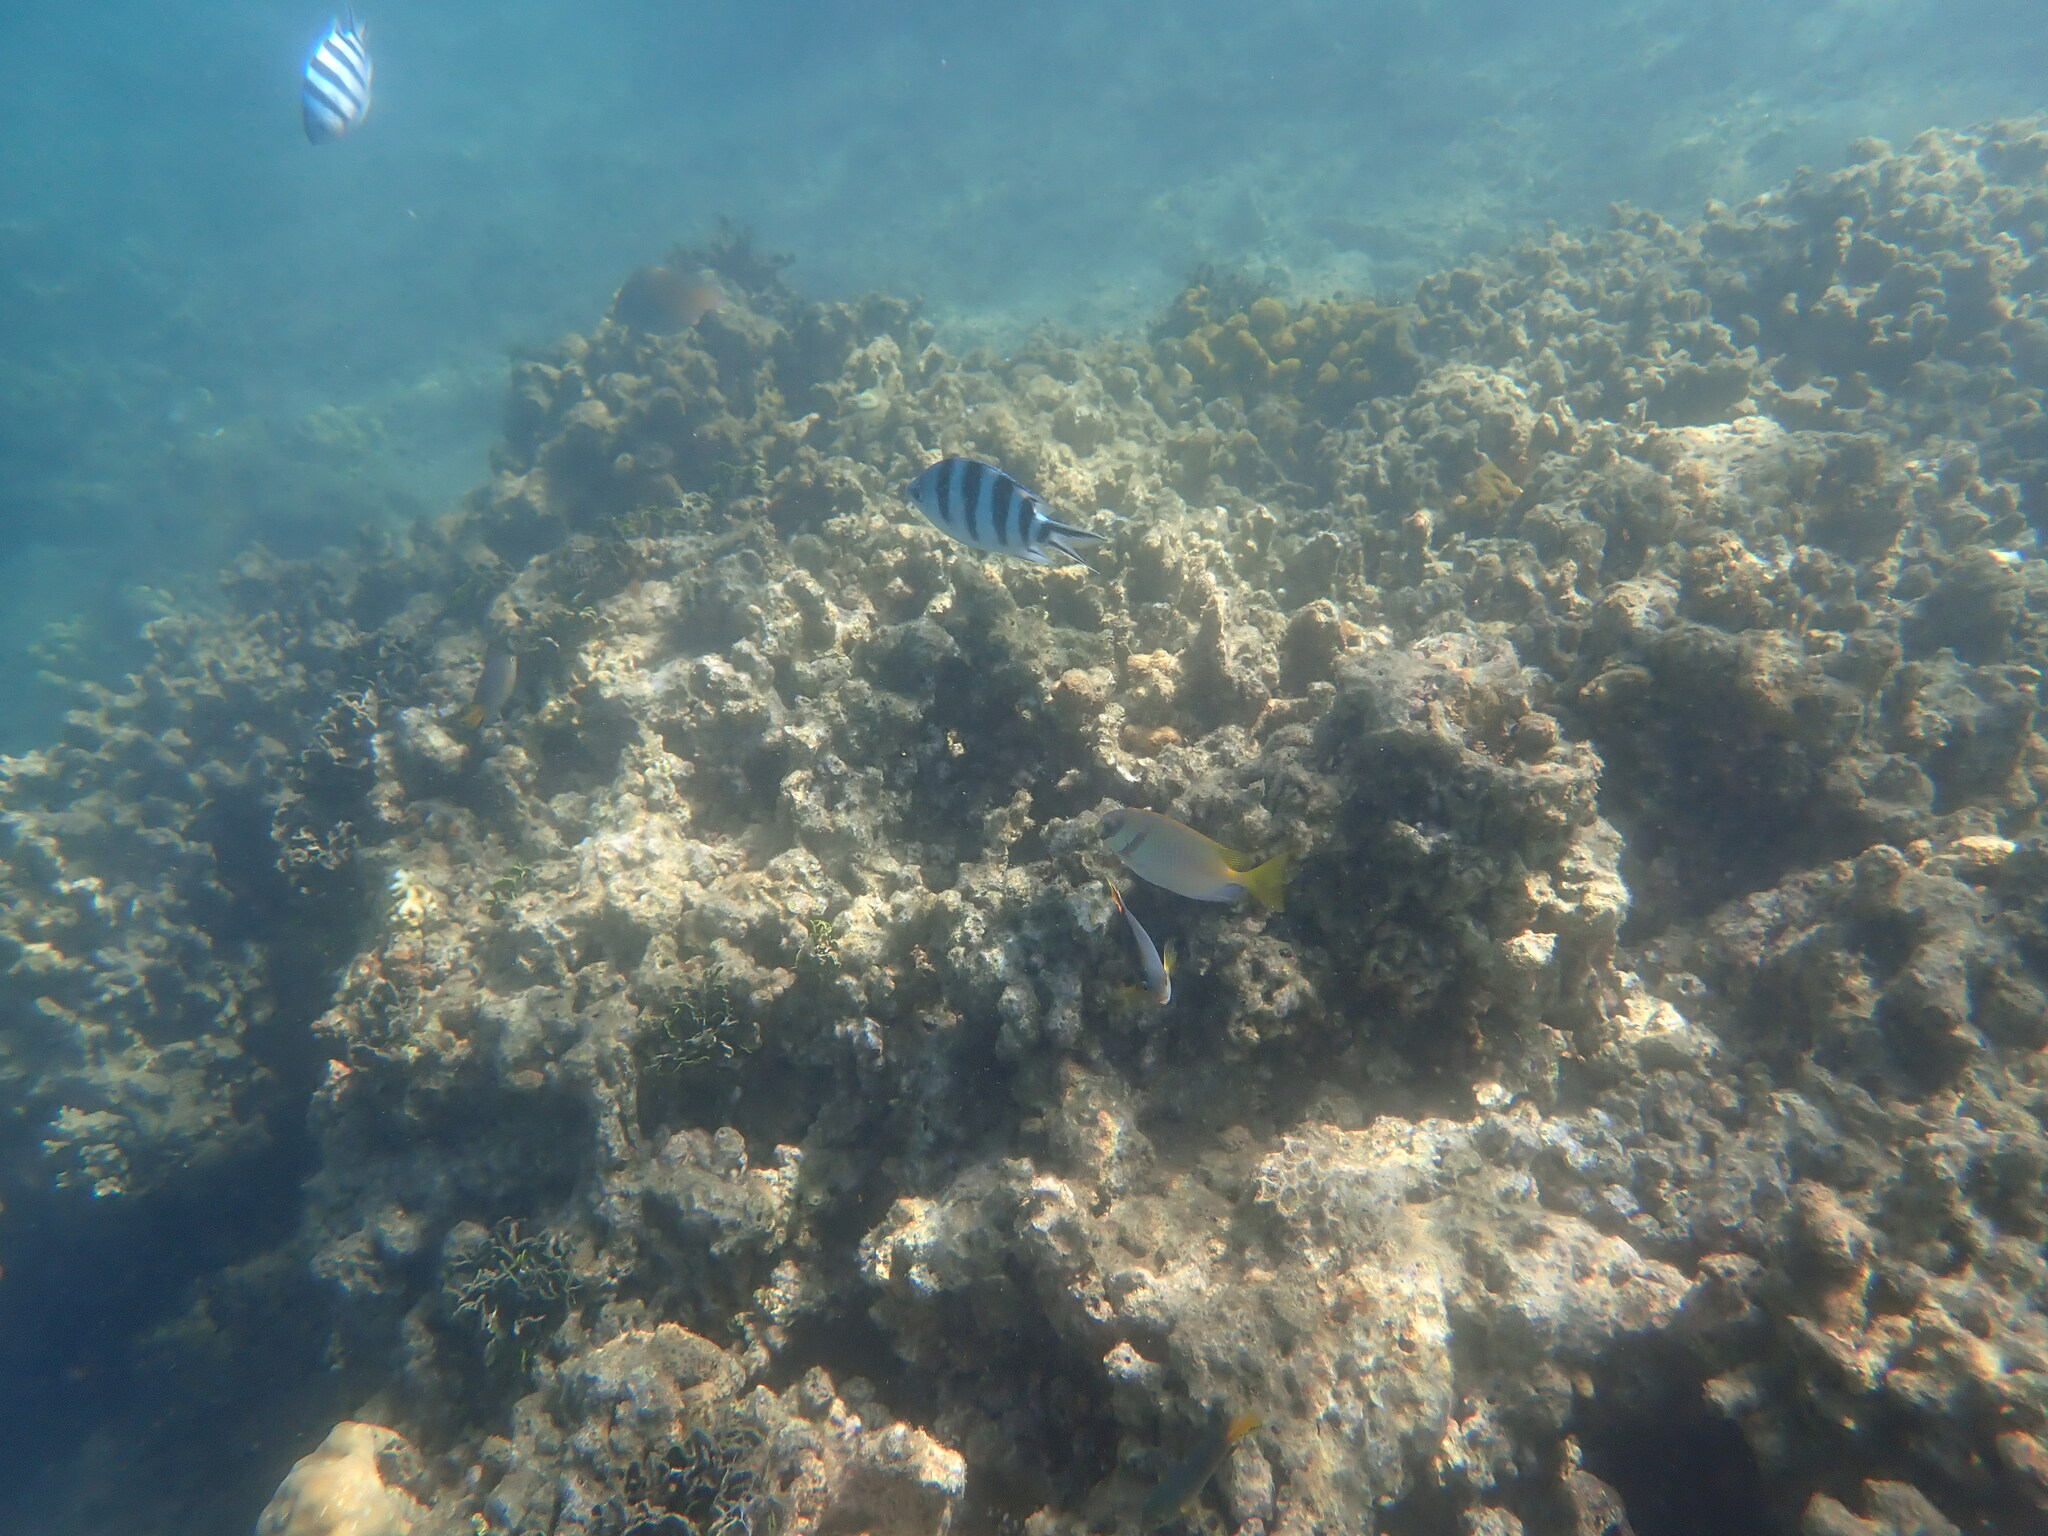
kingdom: Animalia
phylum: Chordata
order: Perciformes
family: Siganidae
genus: Siganus
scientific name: Siganus doliatus
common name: Barred spinefoot
